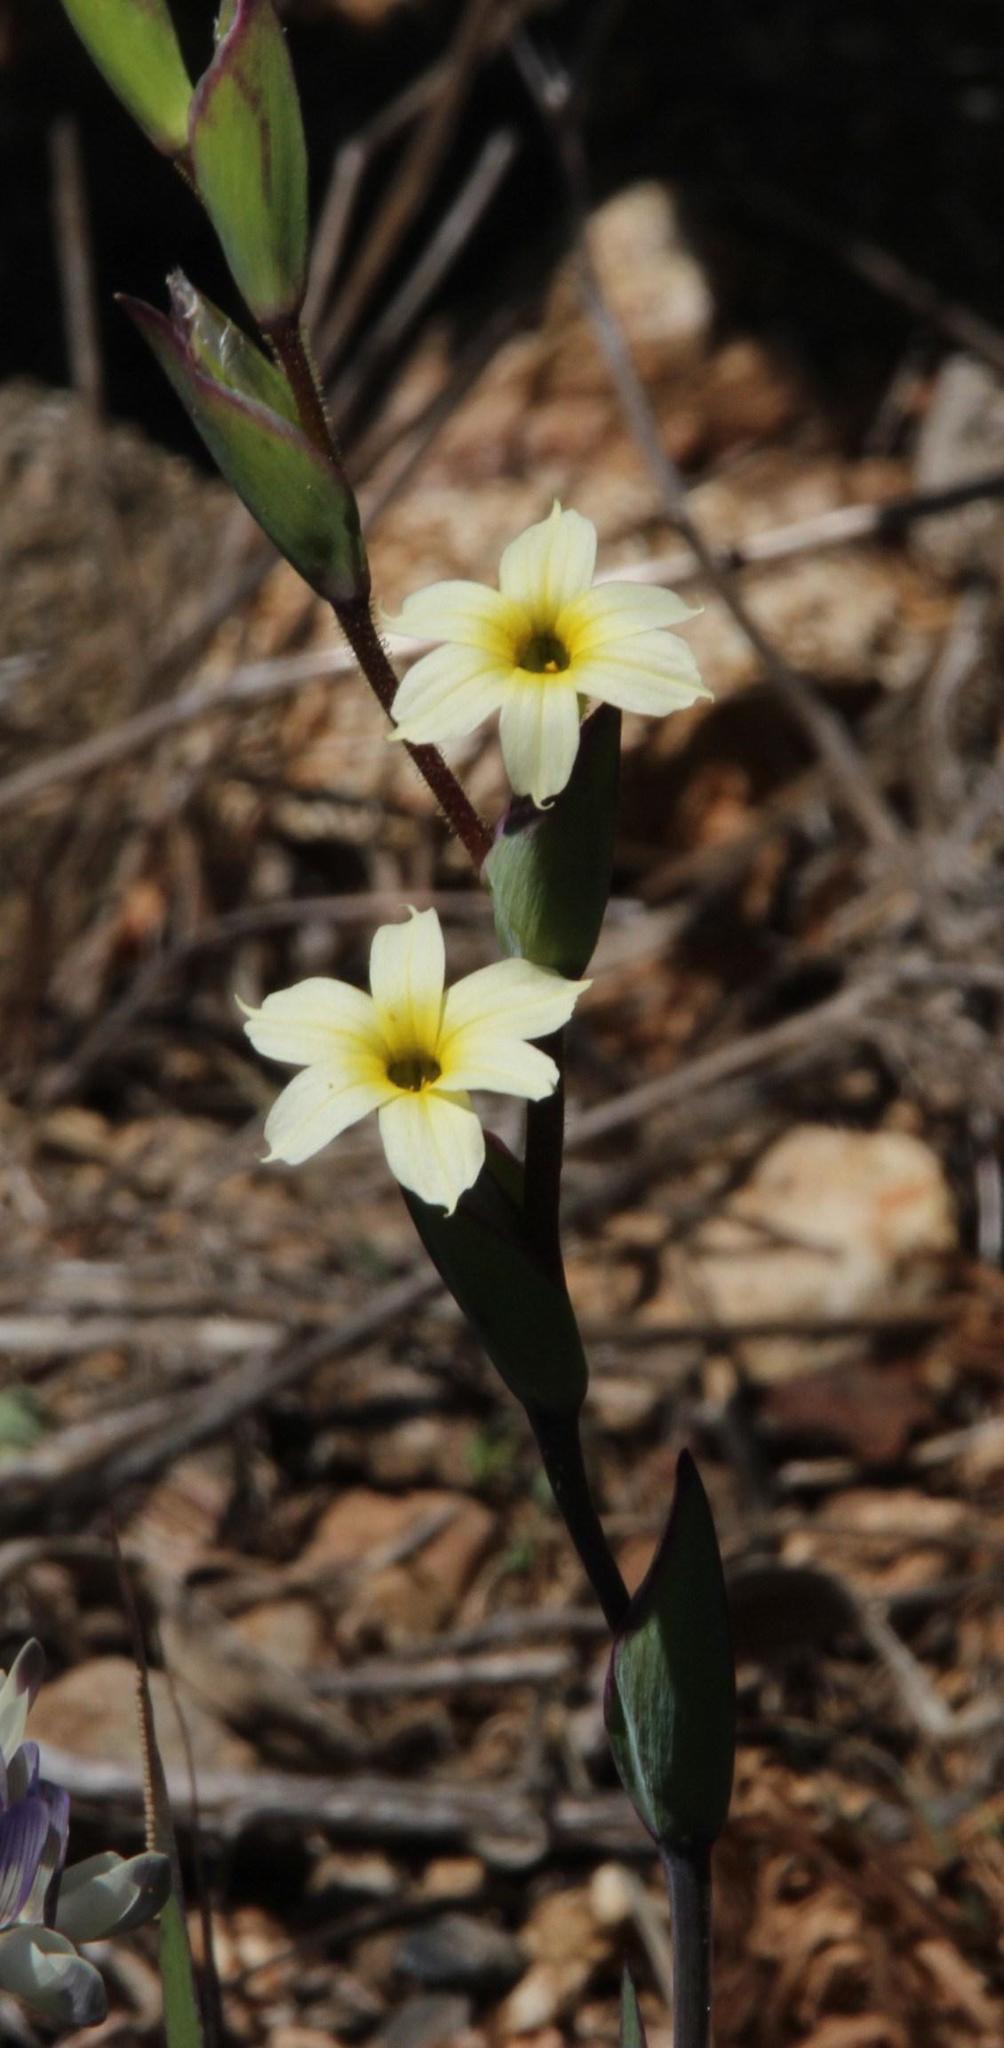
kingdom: Plantae
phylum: Tracheophyta
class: Liliopsida
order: Asparagales
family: Iridaceae
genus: Sisyrinchium
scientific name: Sisyrinchium cuspidatum
